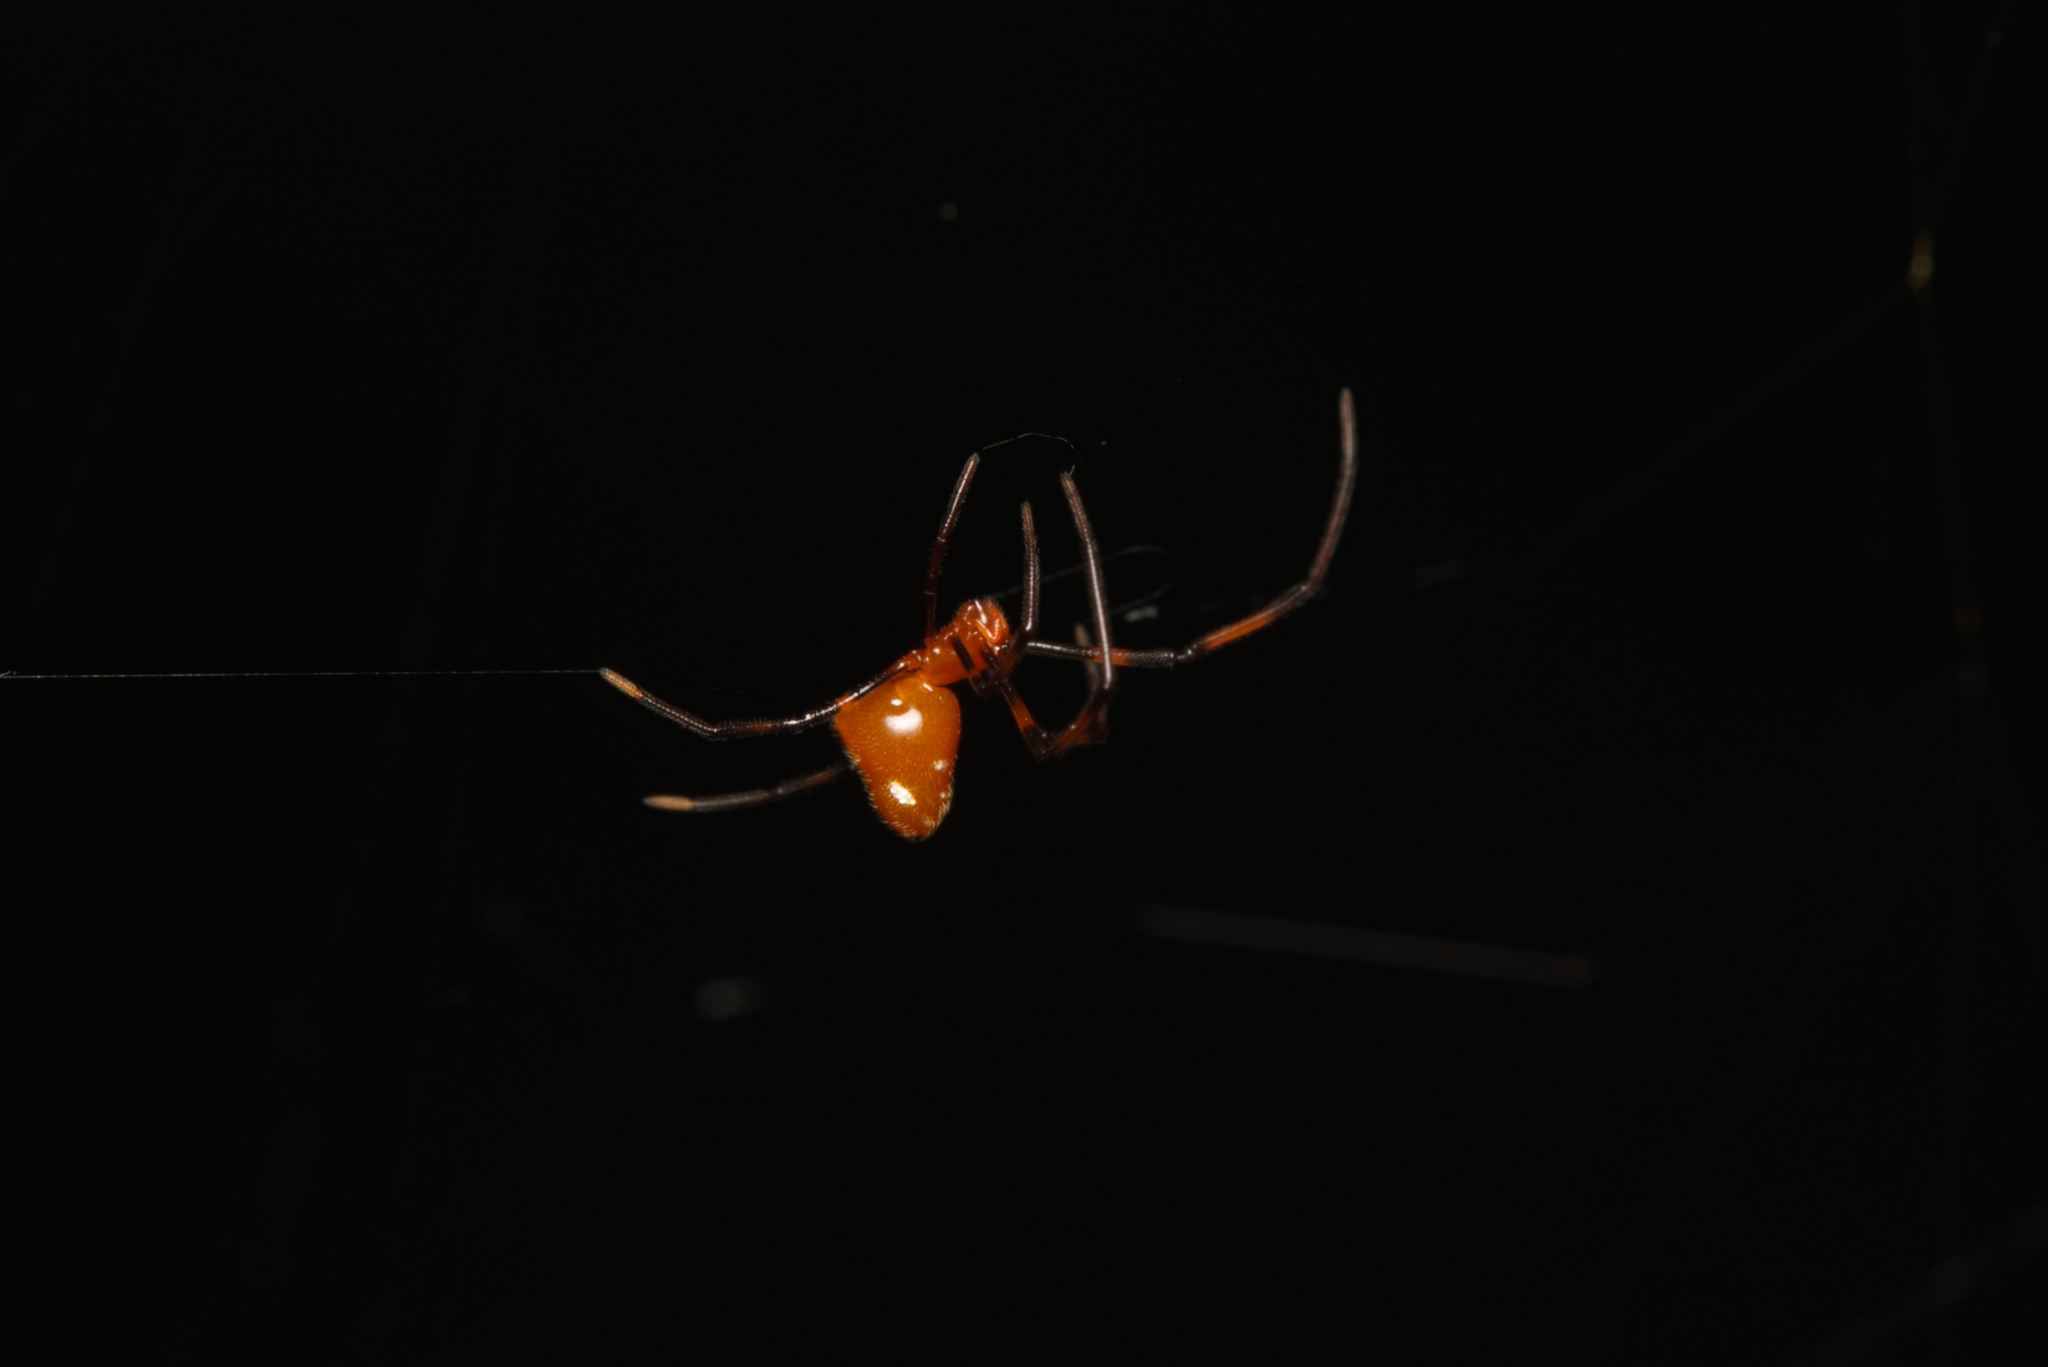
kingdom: Animalia
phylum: Arthropoda
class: Arachnida
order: Araneae
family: Theridiidae
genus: Argyrodes
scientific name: Argyrodes miniaceus
